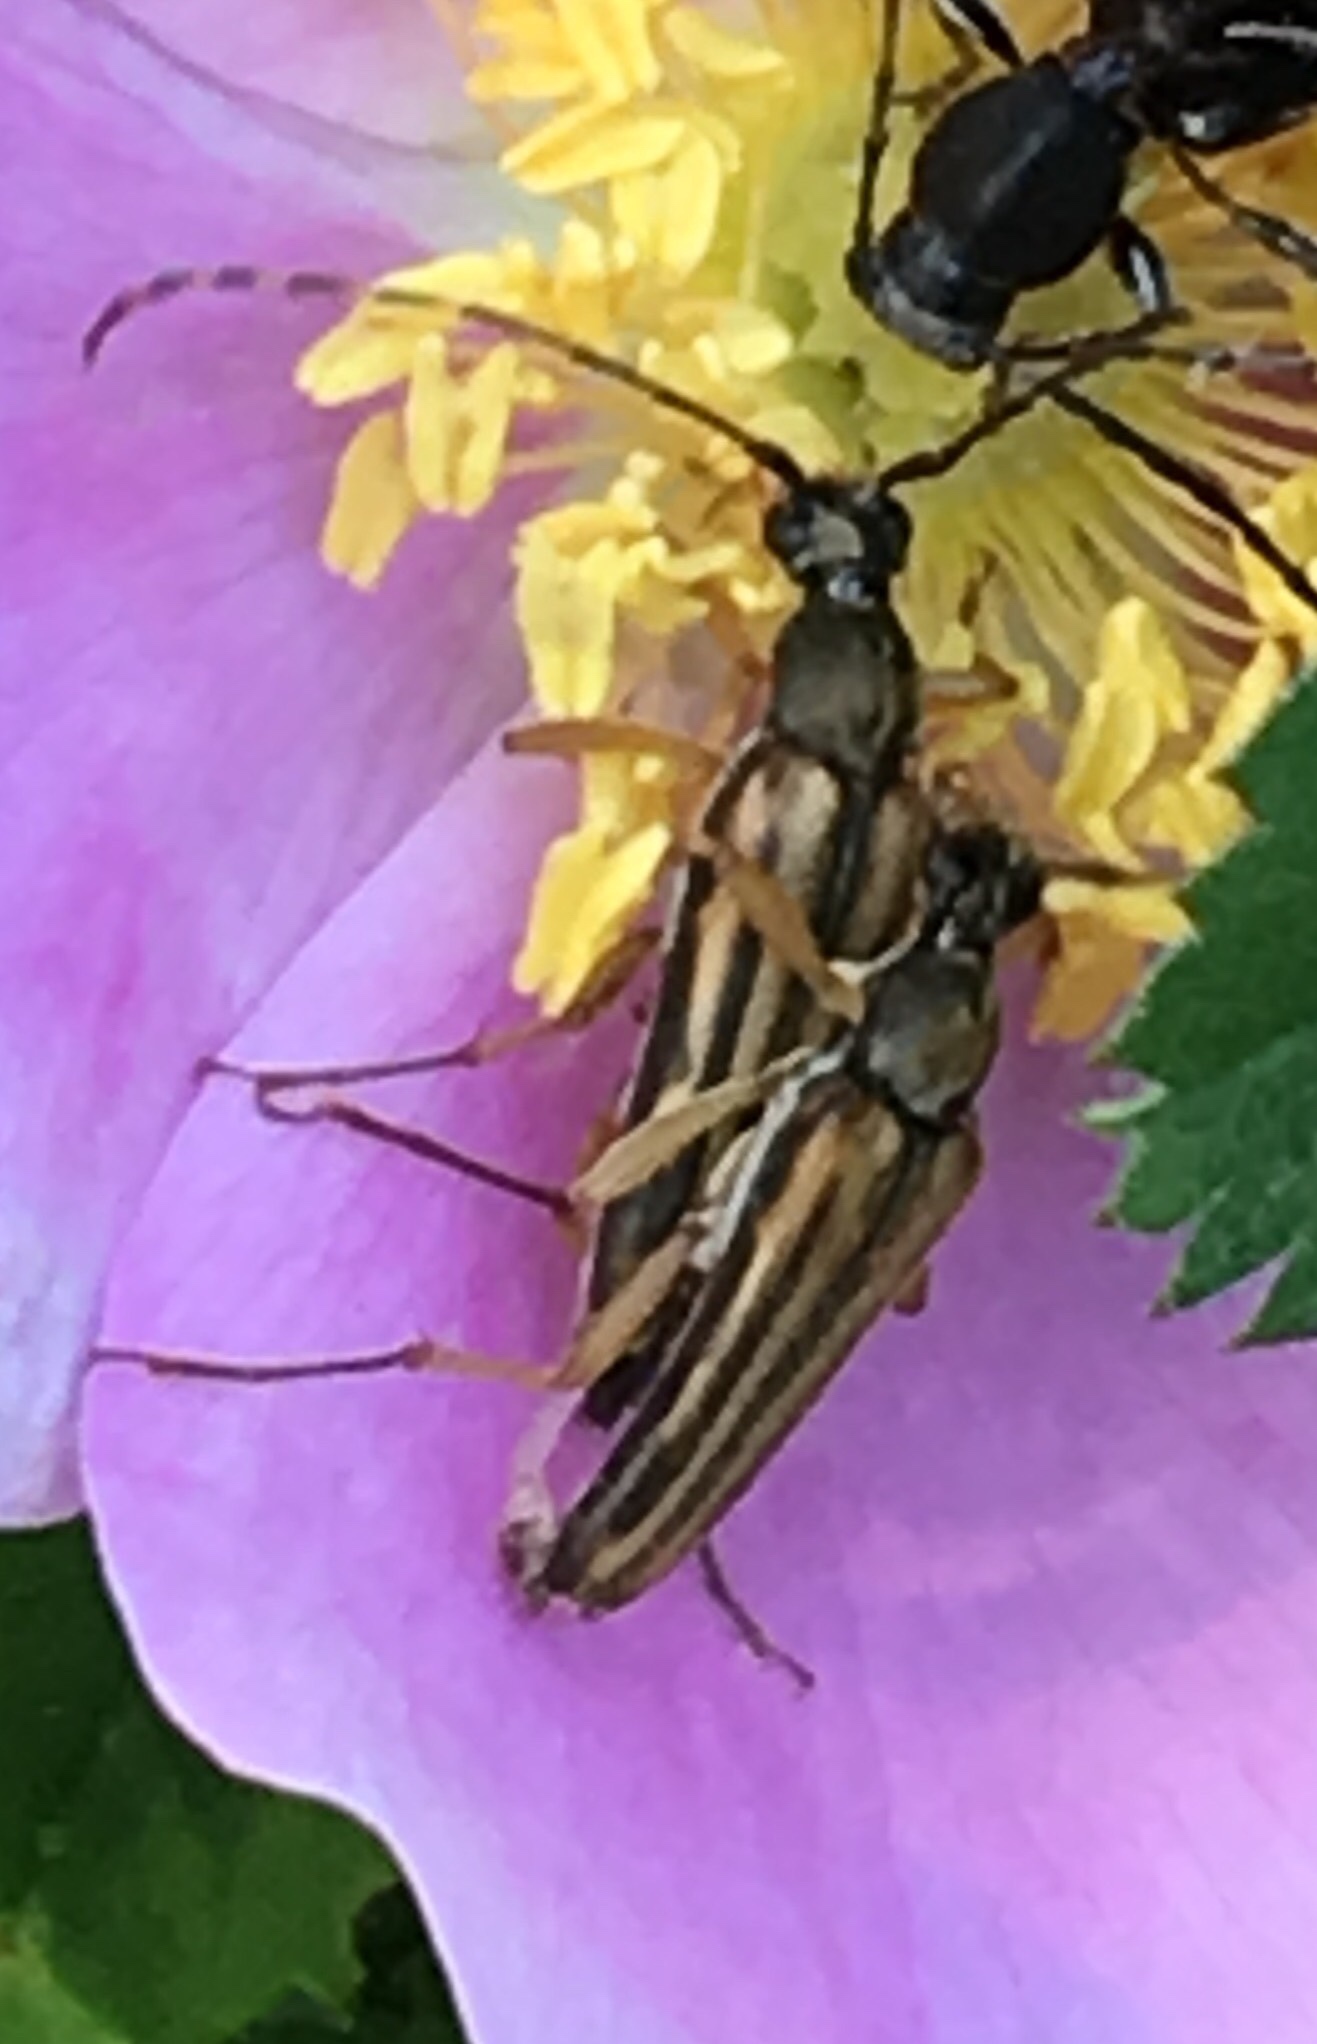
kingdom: Animalia
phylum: Arthropoda
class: Insecta
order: Coleoptera
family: Cerambycidae
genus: Analeptura
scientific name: Analeptura lineola
